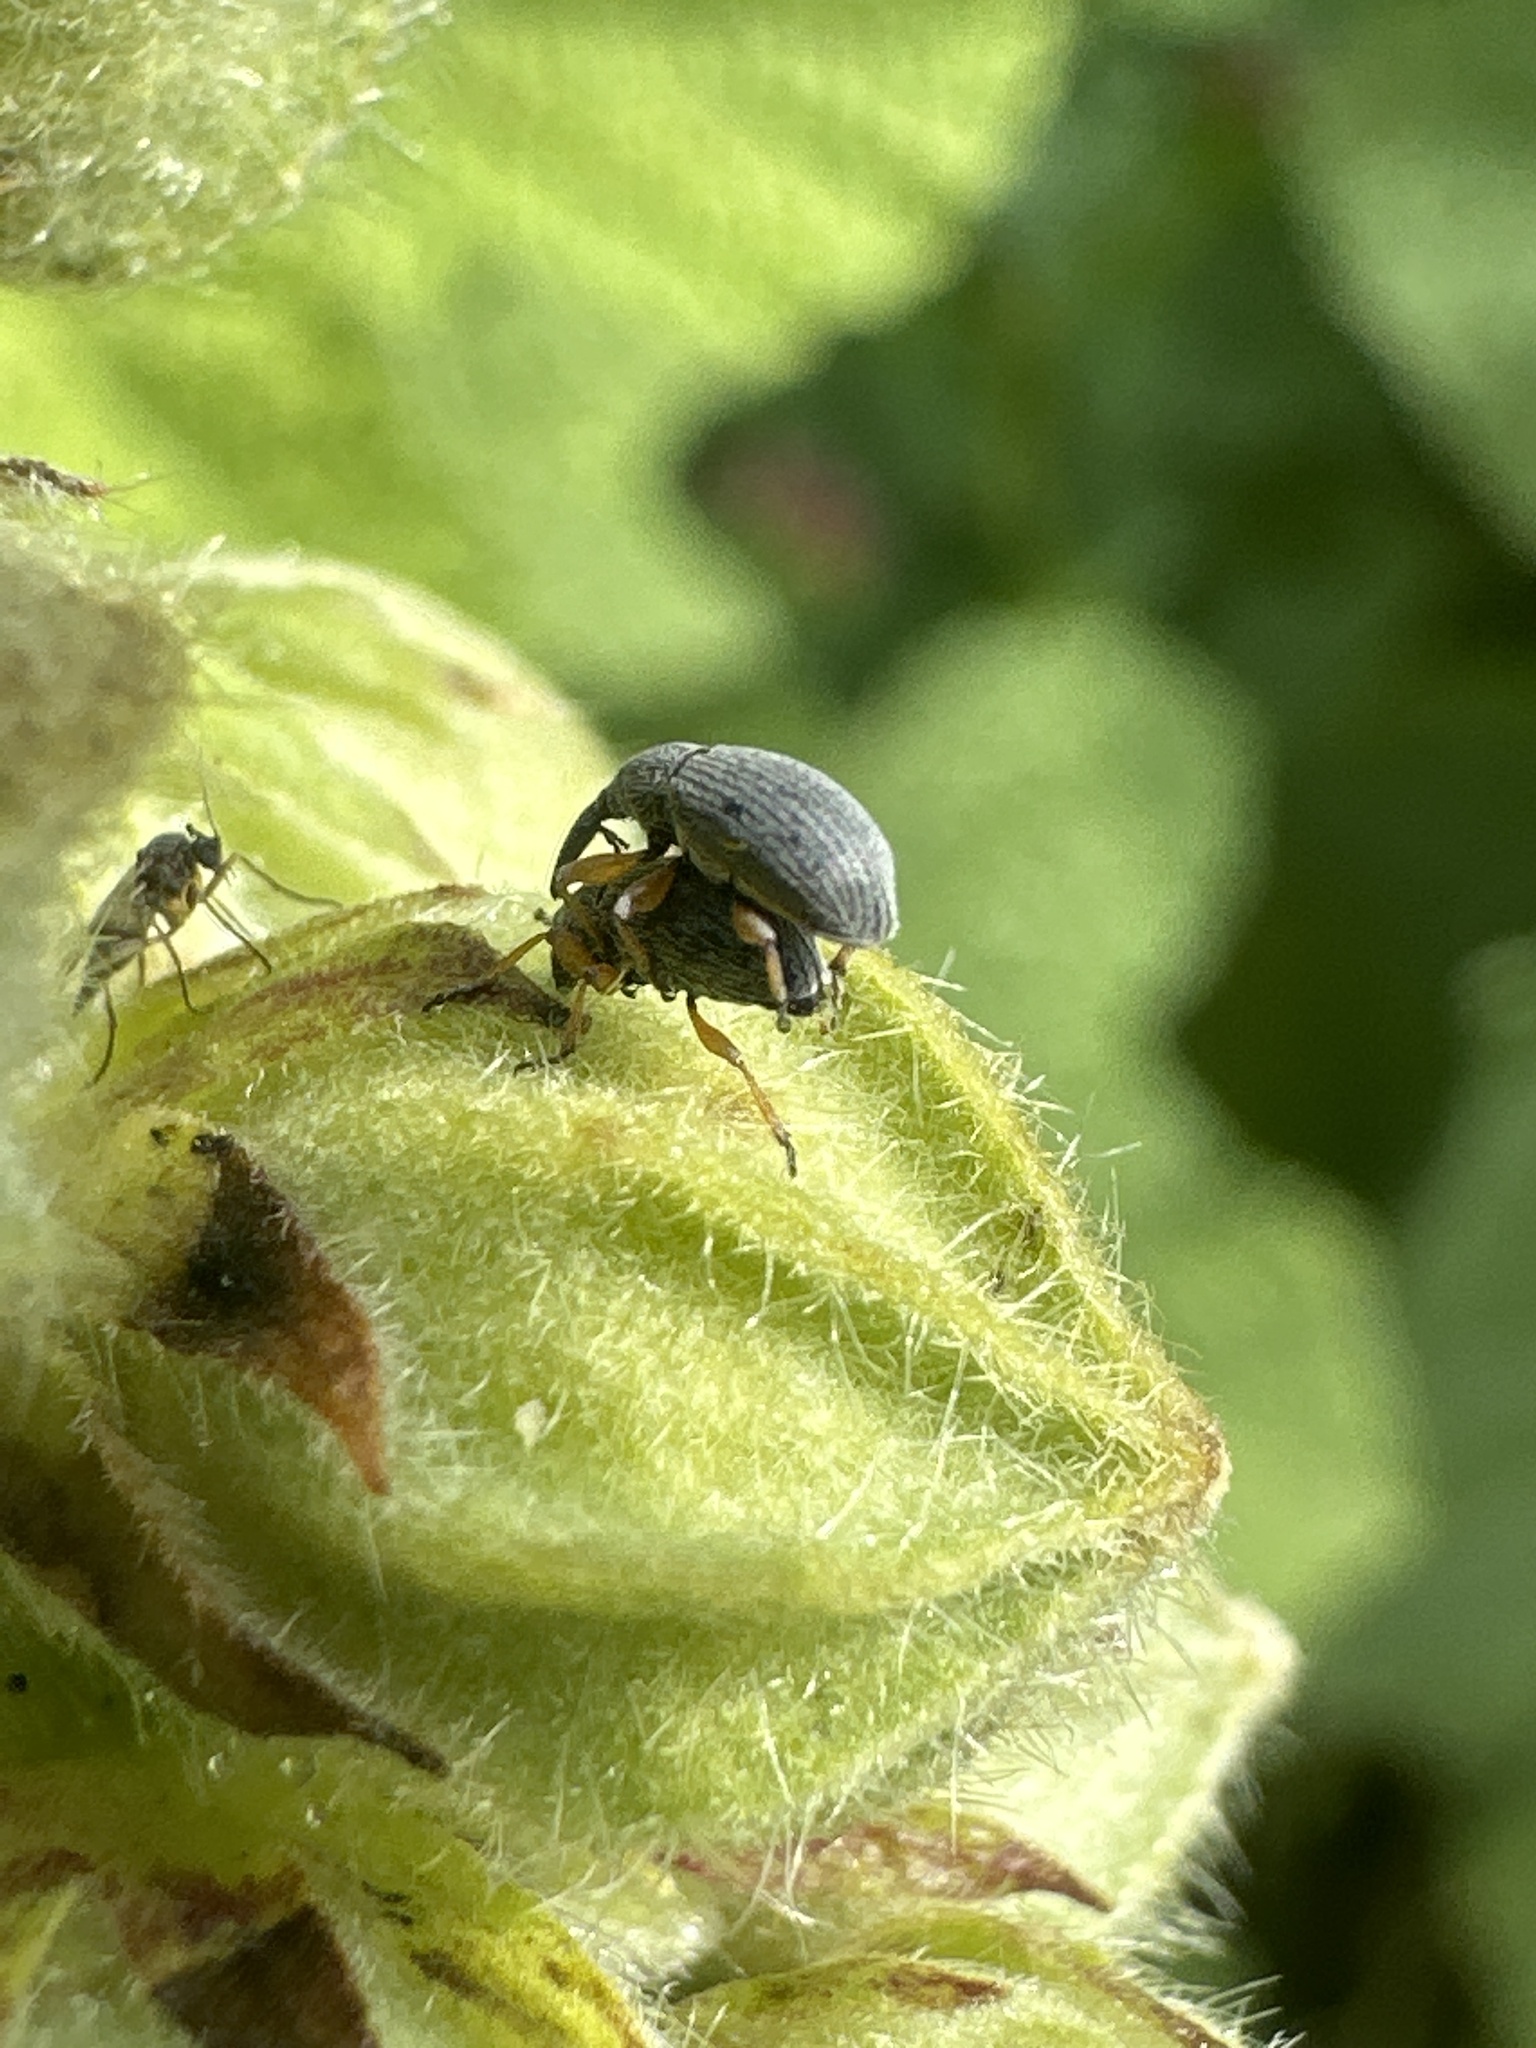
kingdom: Animalia
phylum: Arthropoda
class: Insecta
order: Coleoptera
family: Brentidae
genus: Rhopalapion
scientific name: Rhopalapion longirostre
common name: Hollyhock weevil
